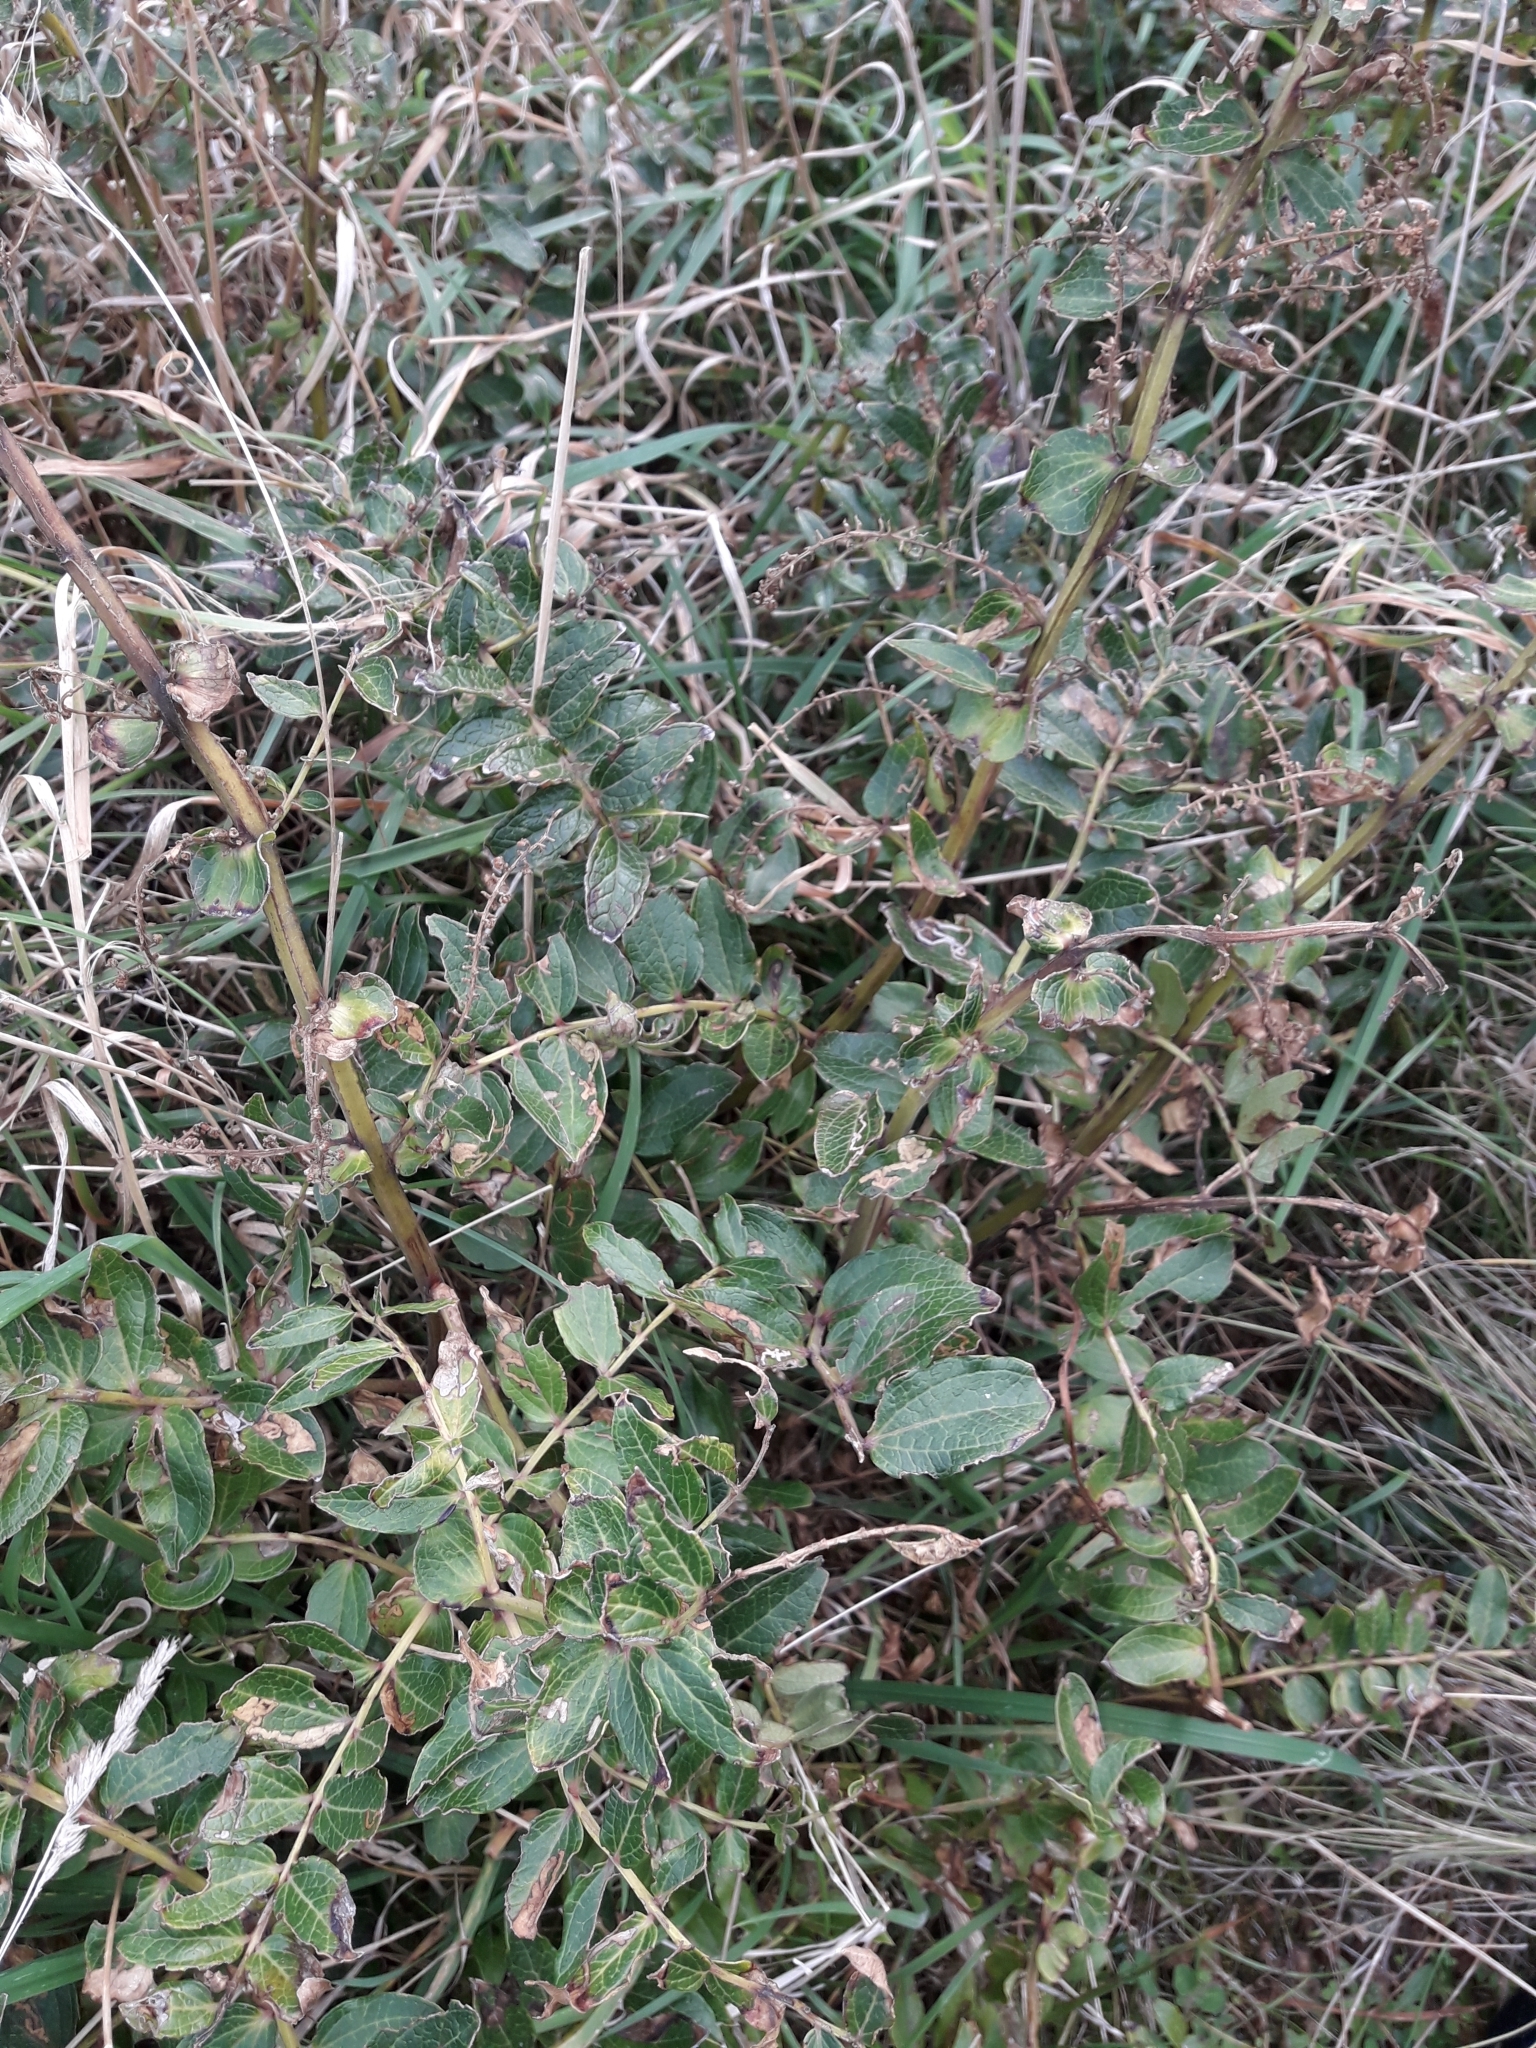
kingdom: Plantae
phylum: Tracheophyta
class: Magnoliopsida
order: Cucurbitales
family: Coriariaceae
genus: Coriaria
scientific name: Coriaria sarmentosa
